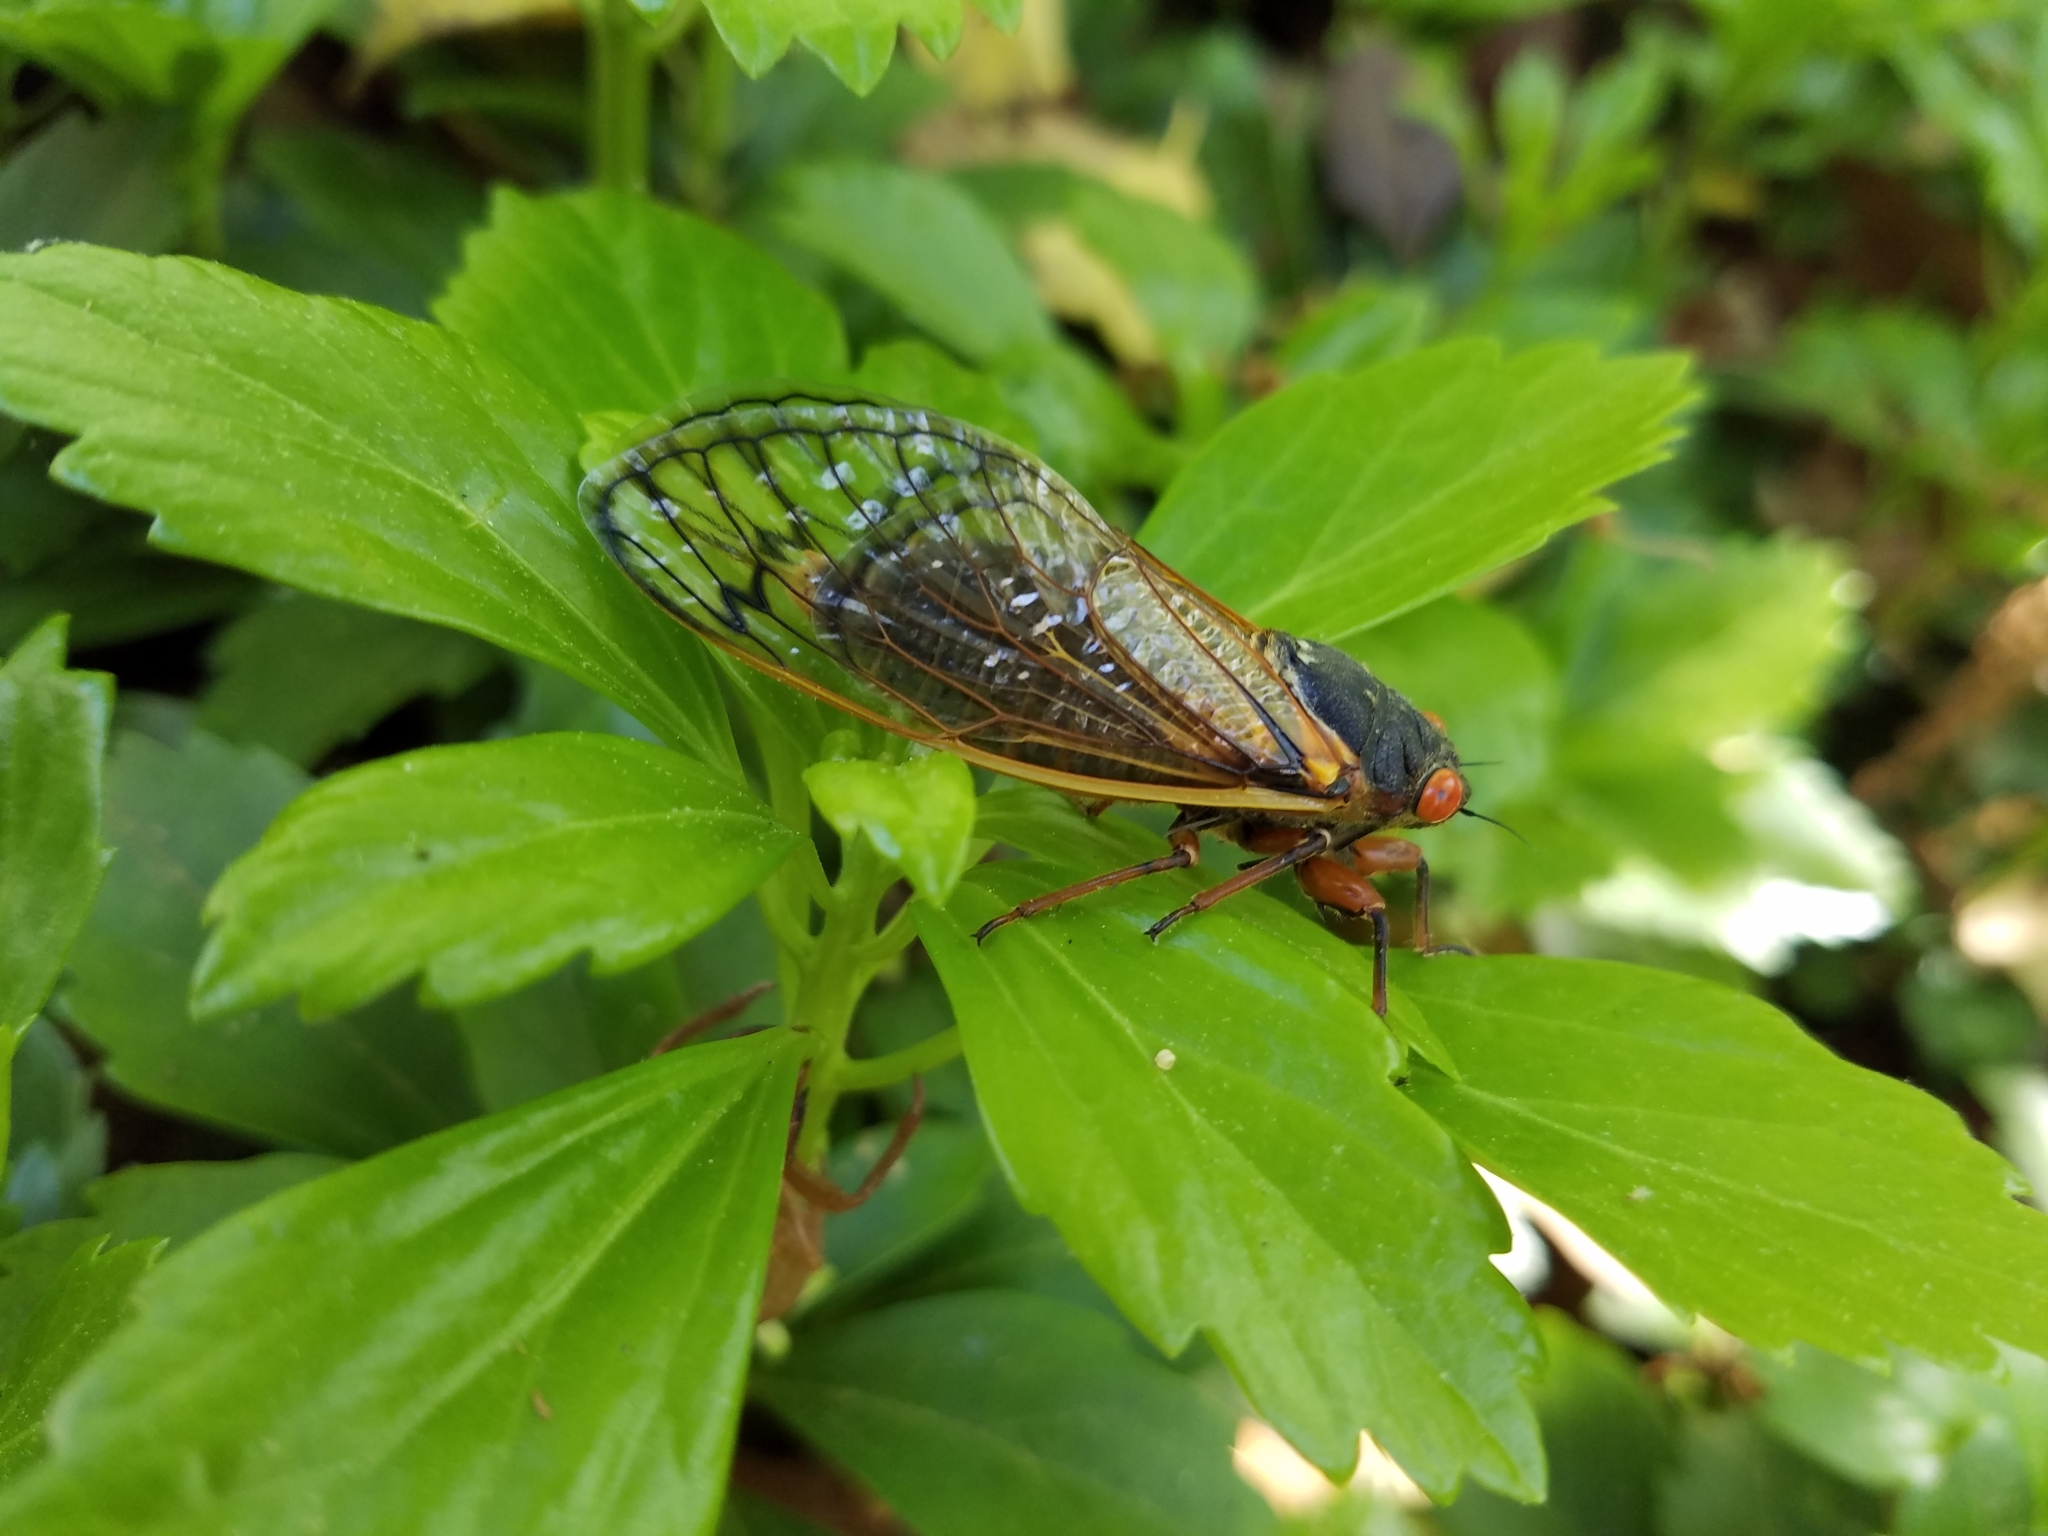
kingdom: Animalia
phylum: Arthropoda
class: Insecta
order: Hemiptera
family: Cicadidae
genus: Magicicada
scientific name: Magicicada septendecim
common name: Periodical cicada
